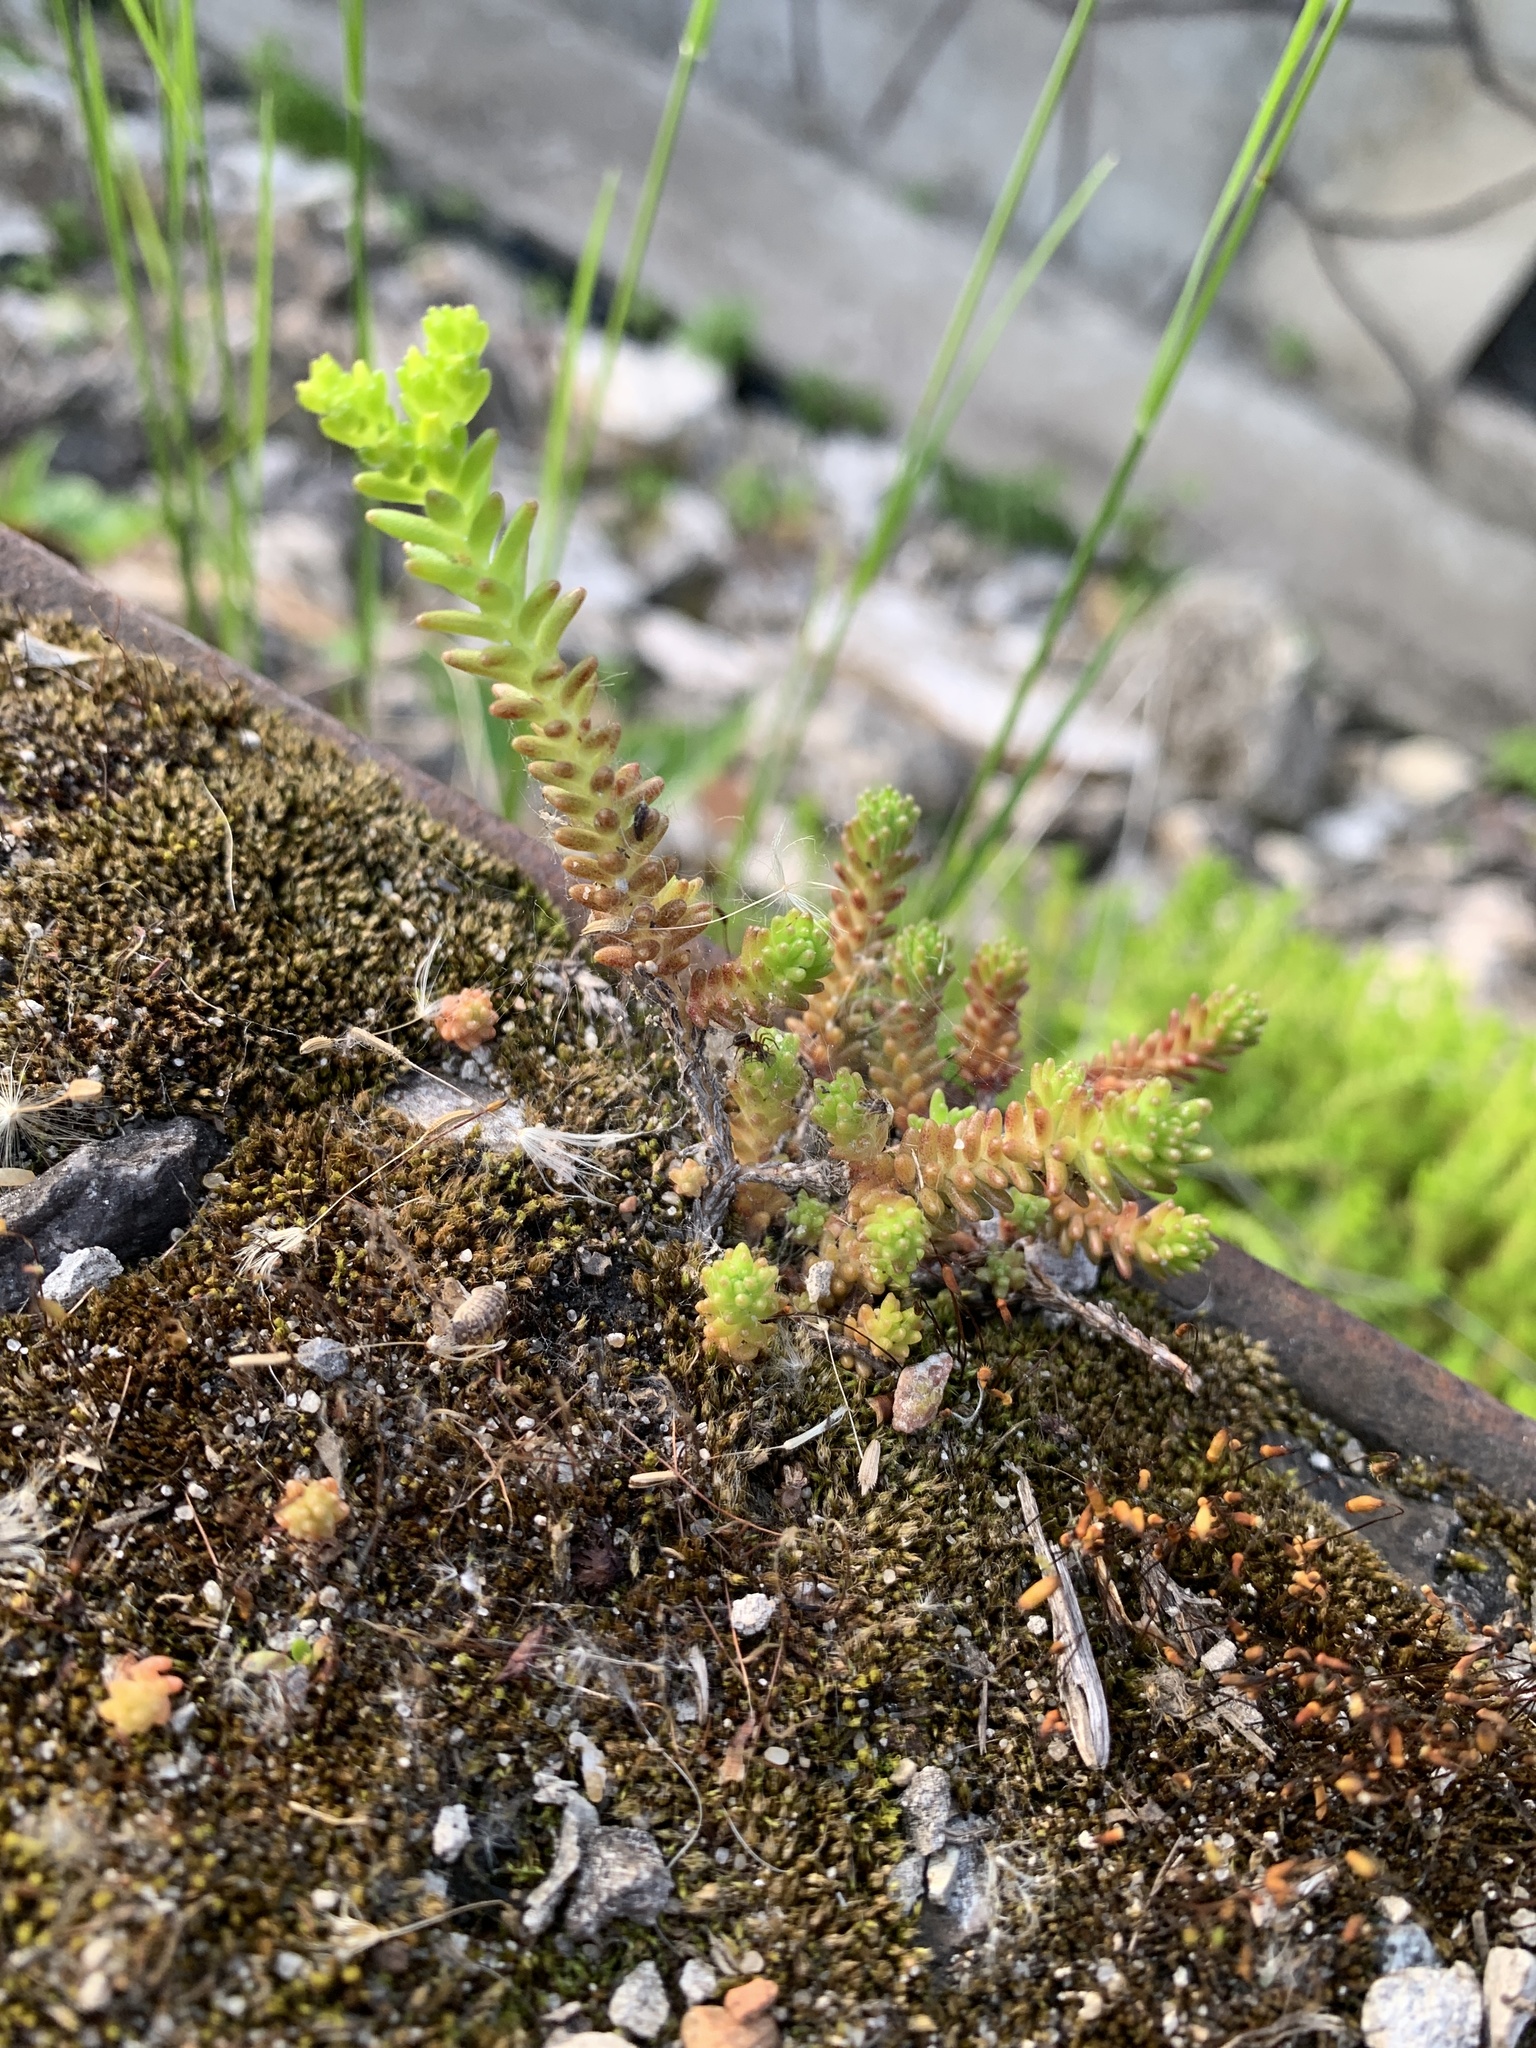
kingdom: Plantae
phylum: Tracheophyta
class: Magnoliopsida
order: Saxifragales
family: Crassulaceae
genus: Sedum
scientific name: Sedum acre
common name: Biting stonecrop
